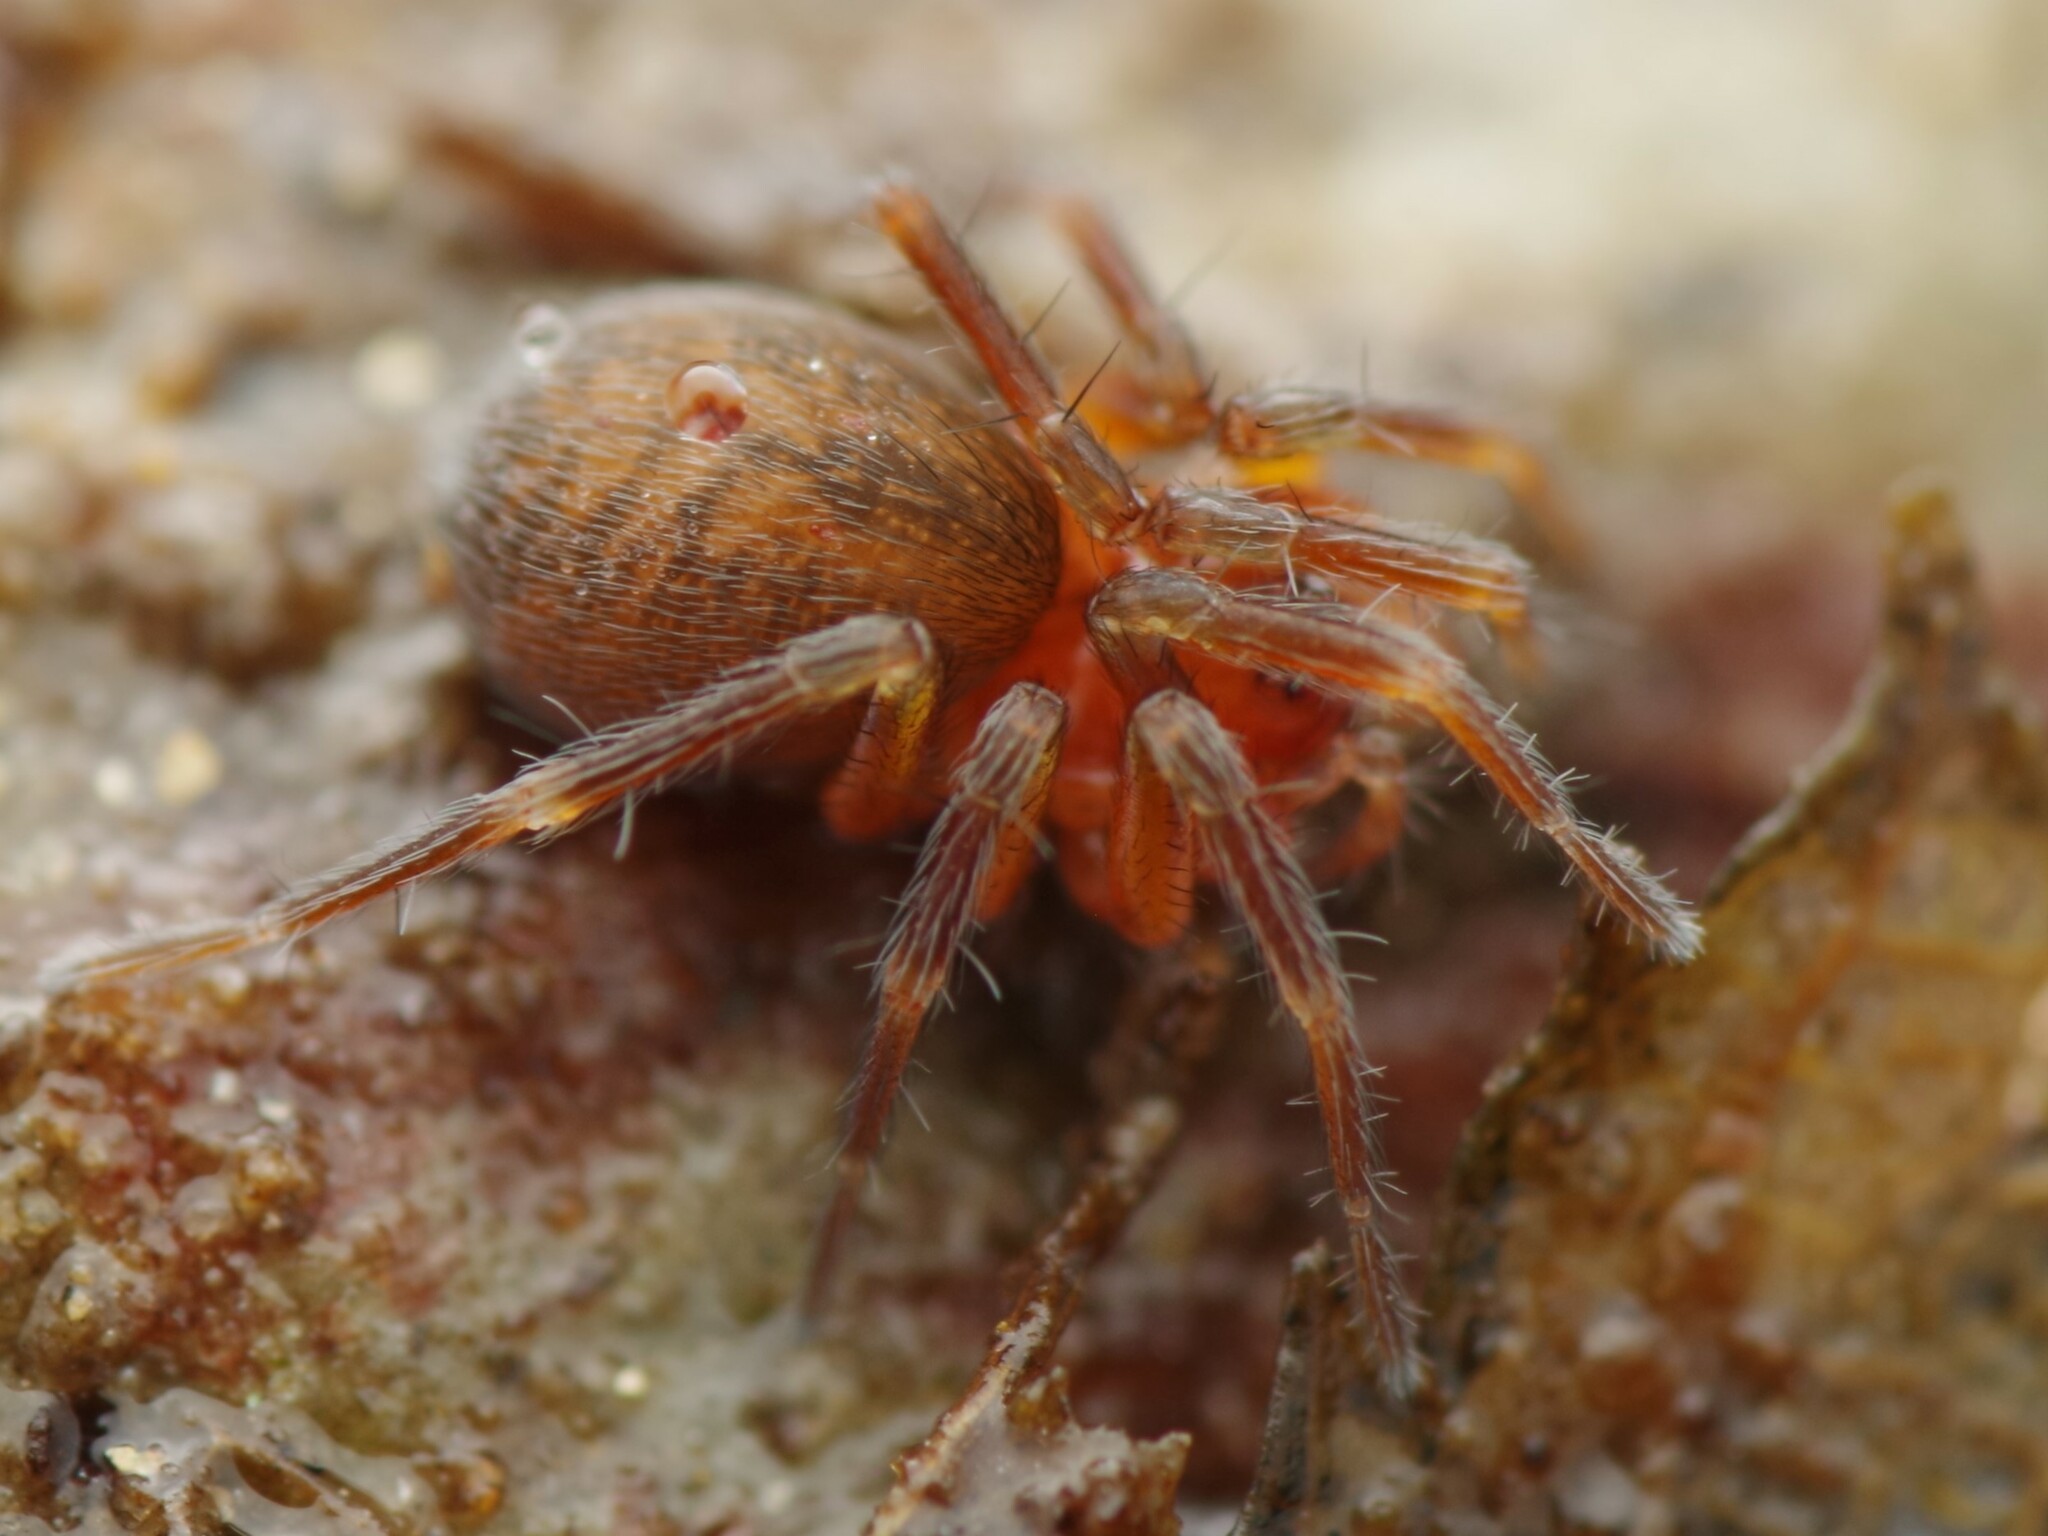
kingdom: Animalia
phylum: Arthropoda
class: Arachnida
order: Araneae
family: Hahniidae
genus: Antistea
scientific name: Antistea elegans
